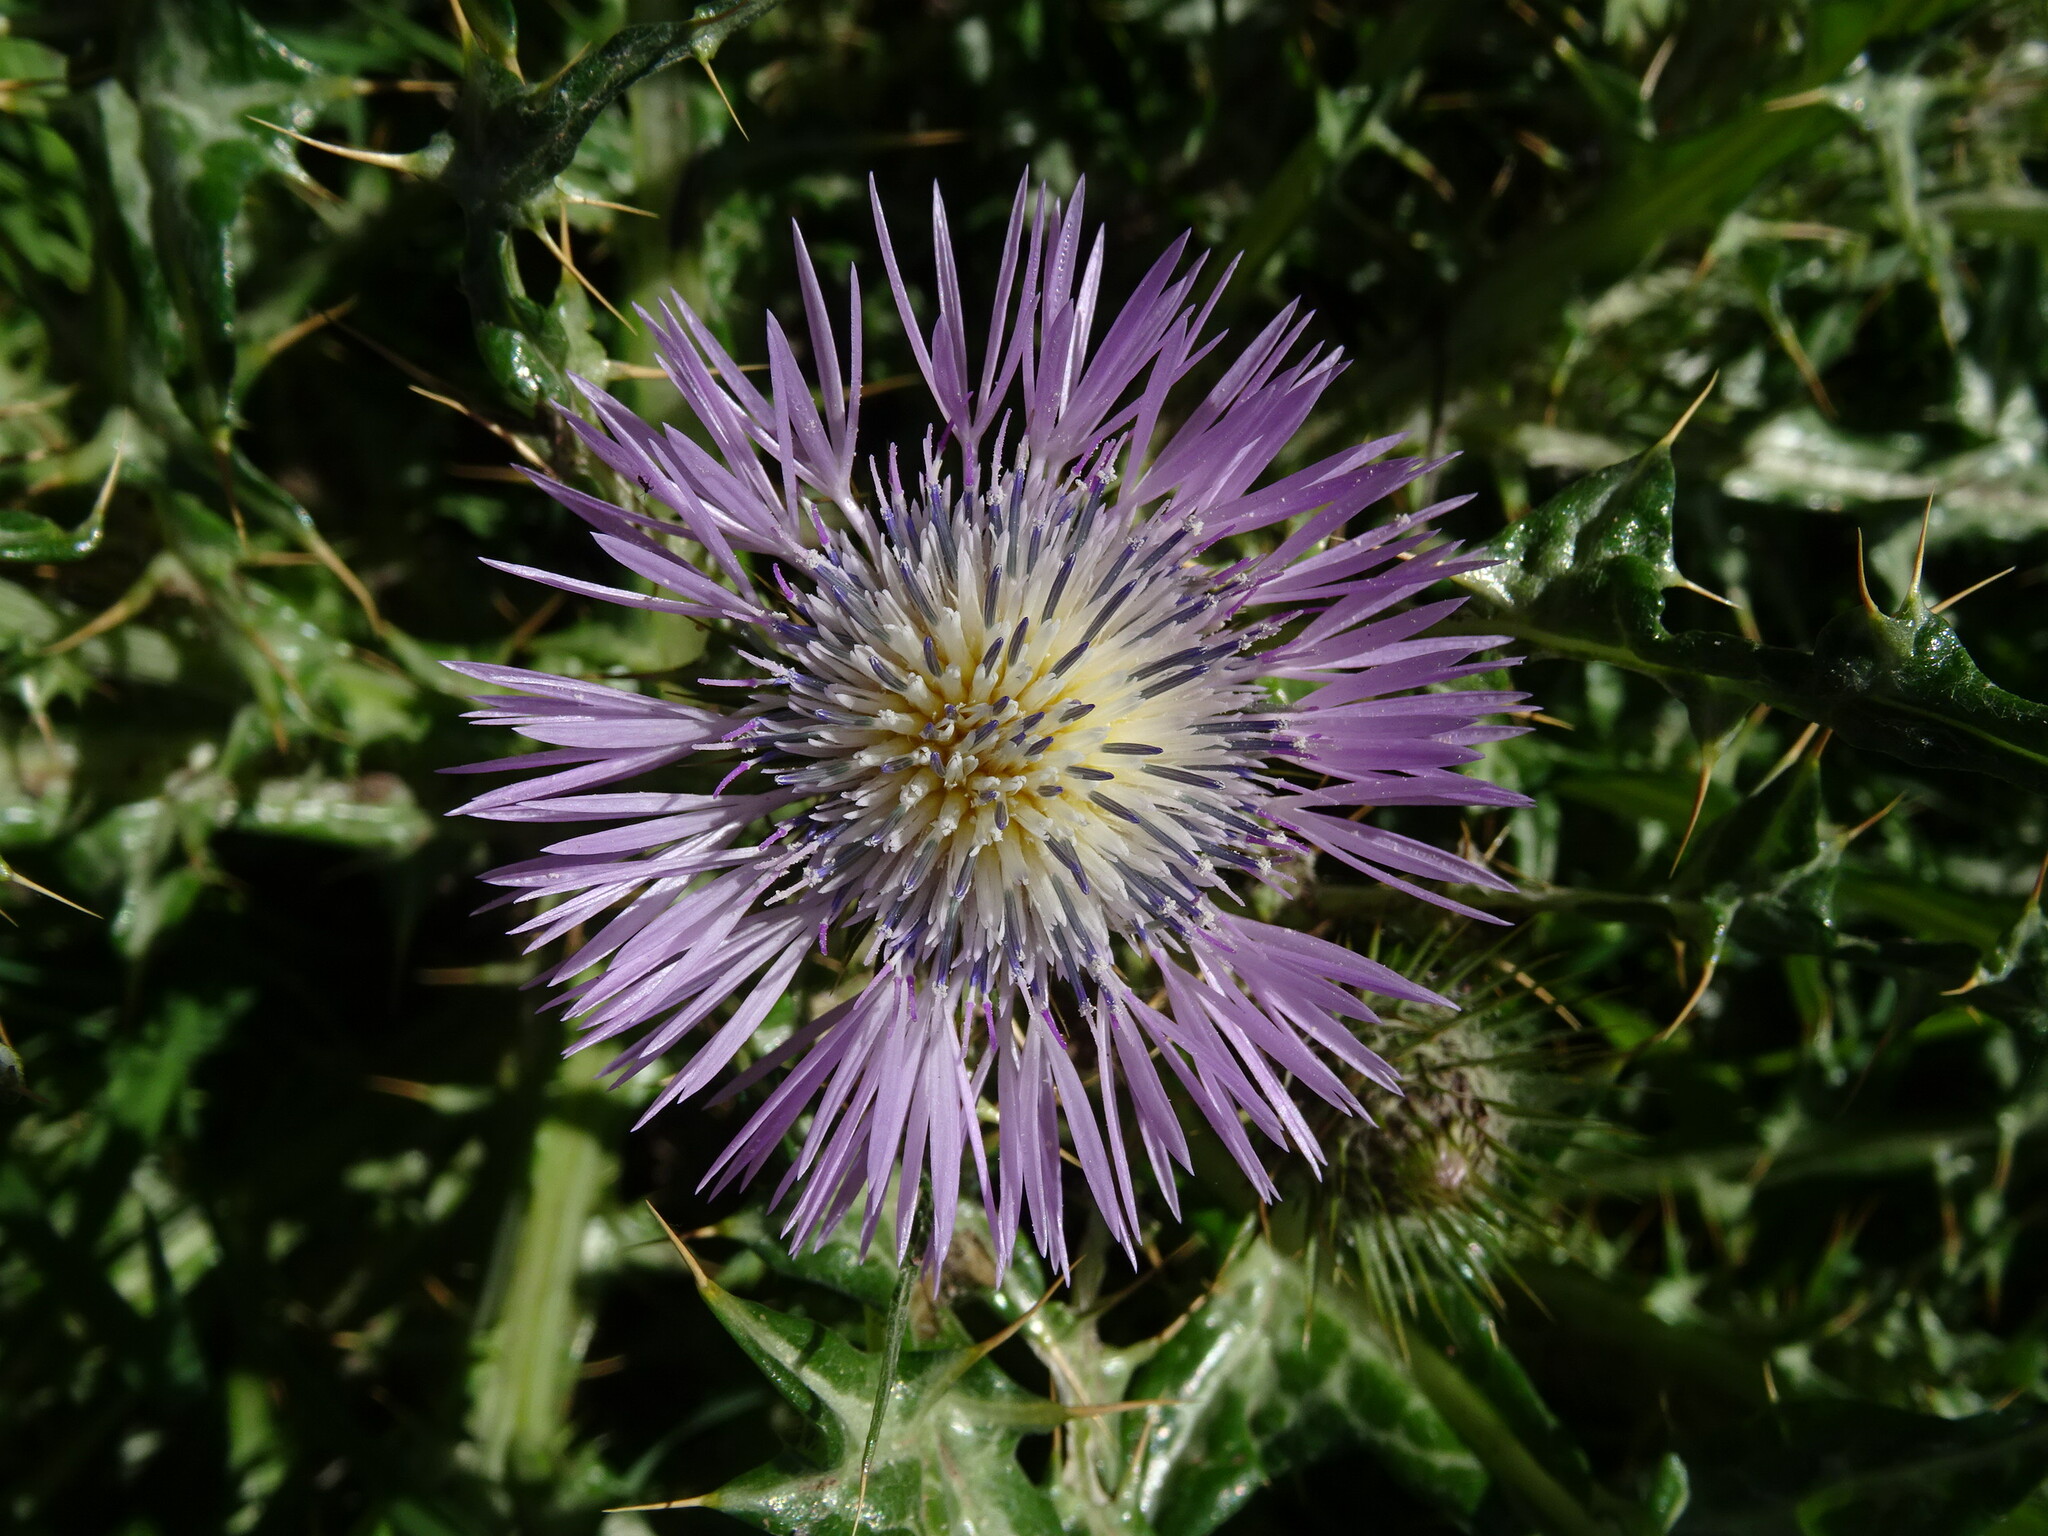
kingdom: Plantae
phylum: Tracheophyta
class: Magnoliopsida
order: Asterales
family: Asteraceae
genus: Galactites
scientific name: Galactites tomentosa
